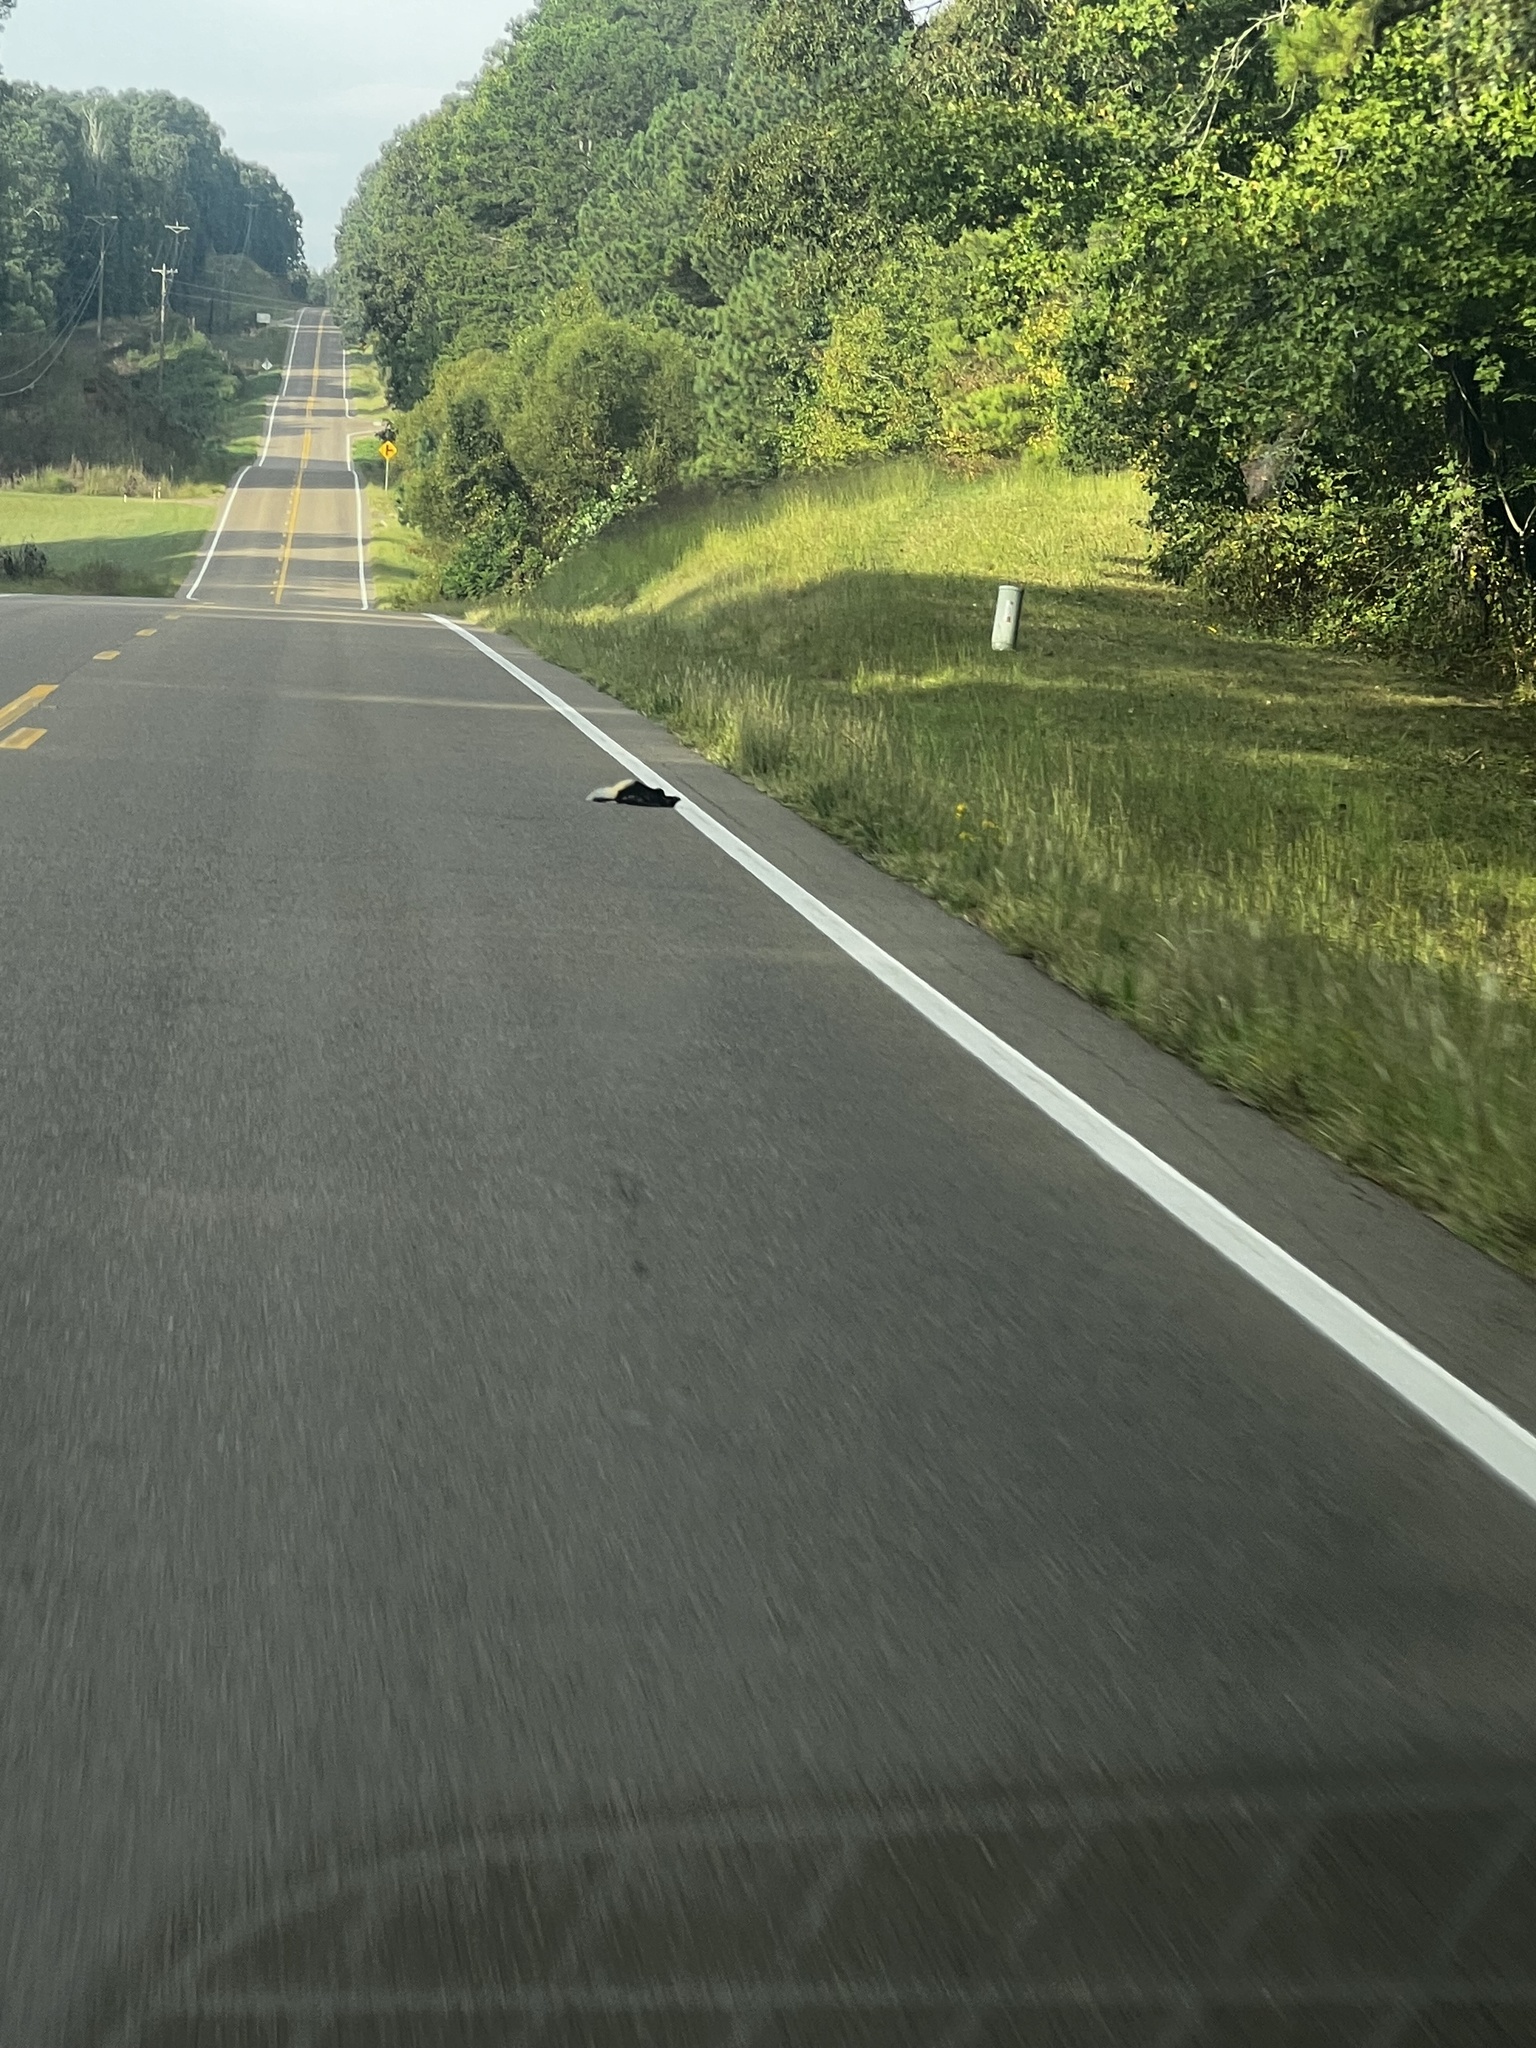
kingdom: Animalia
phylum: Chordata
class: Mammalia
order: Carnivora
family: Mephitidae
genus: Mephitis
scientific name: Mephitis mephitis
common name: Striped skunk
